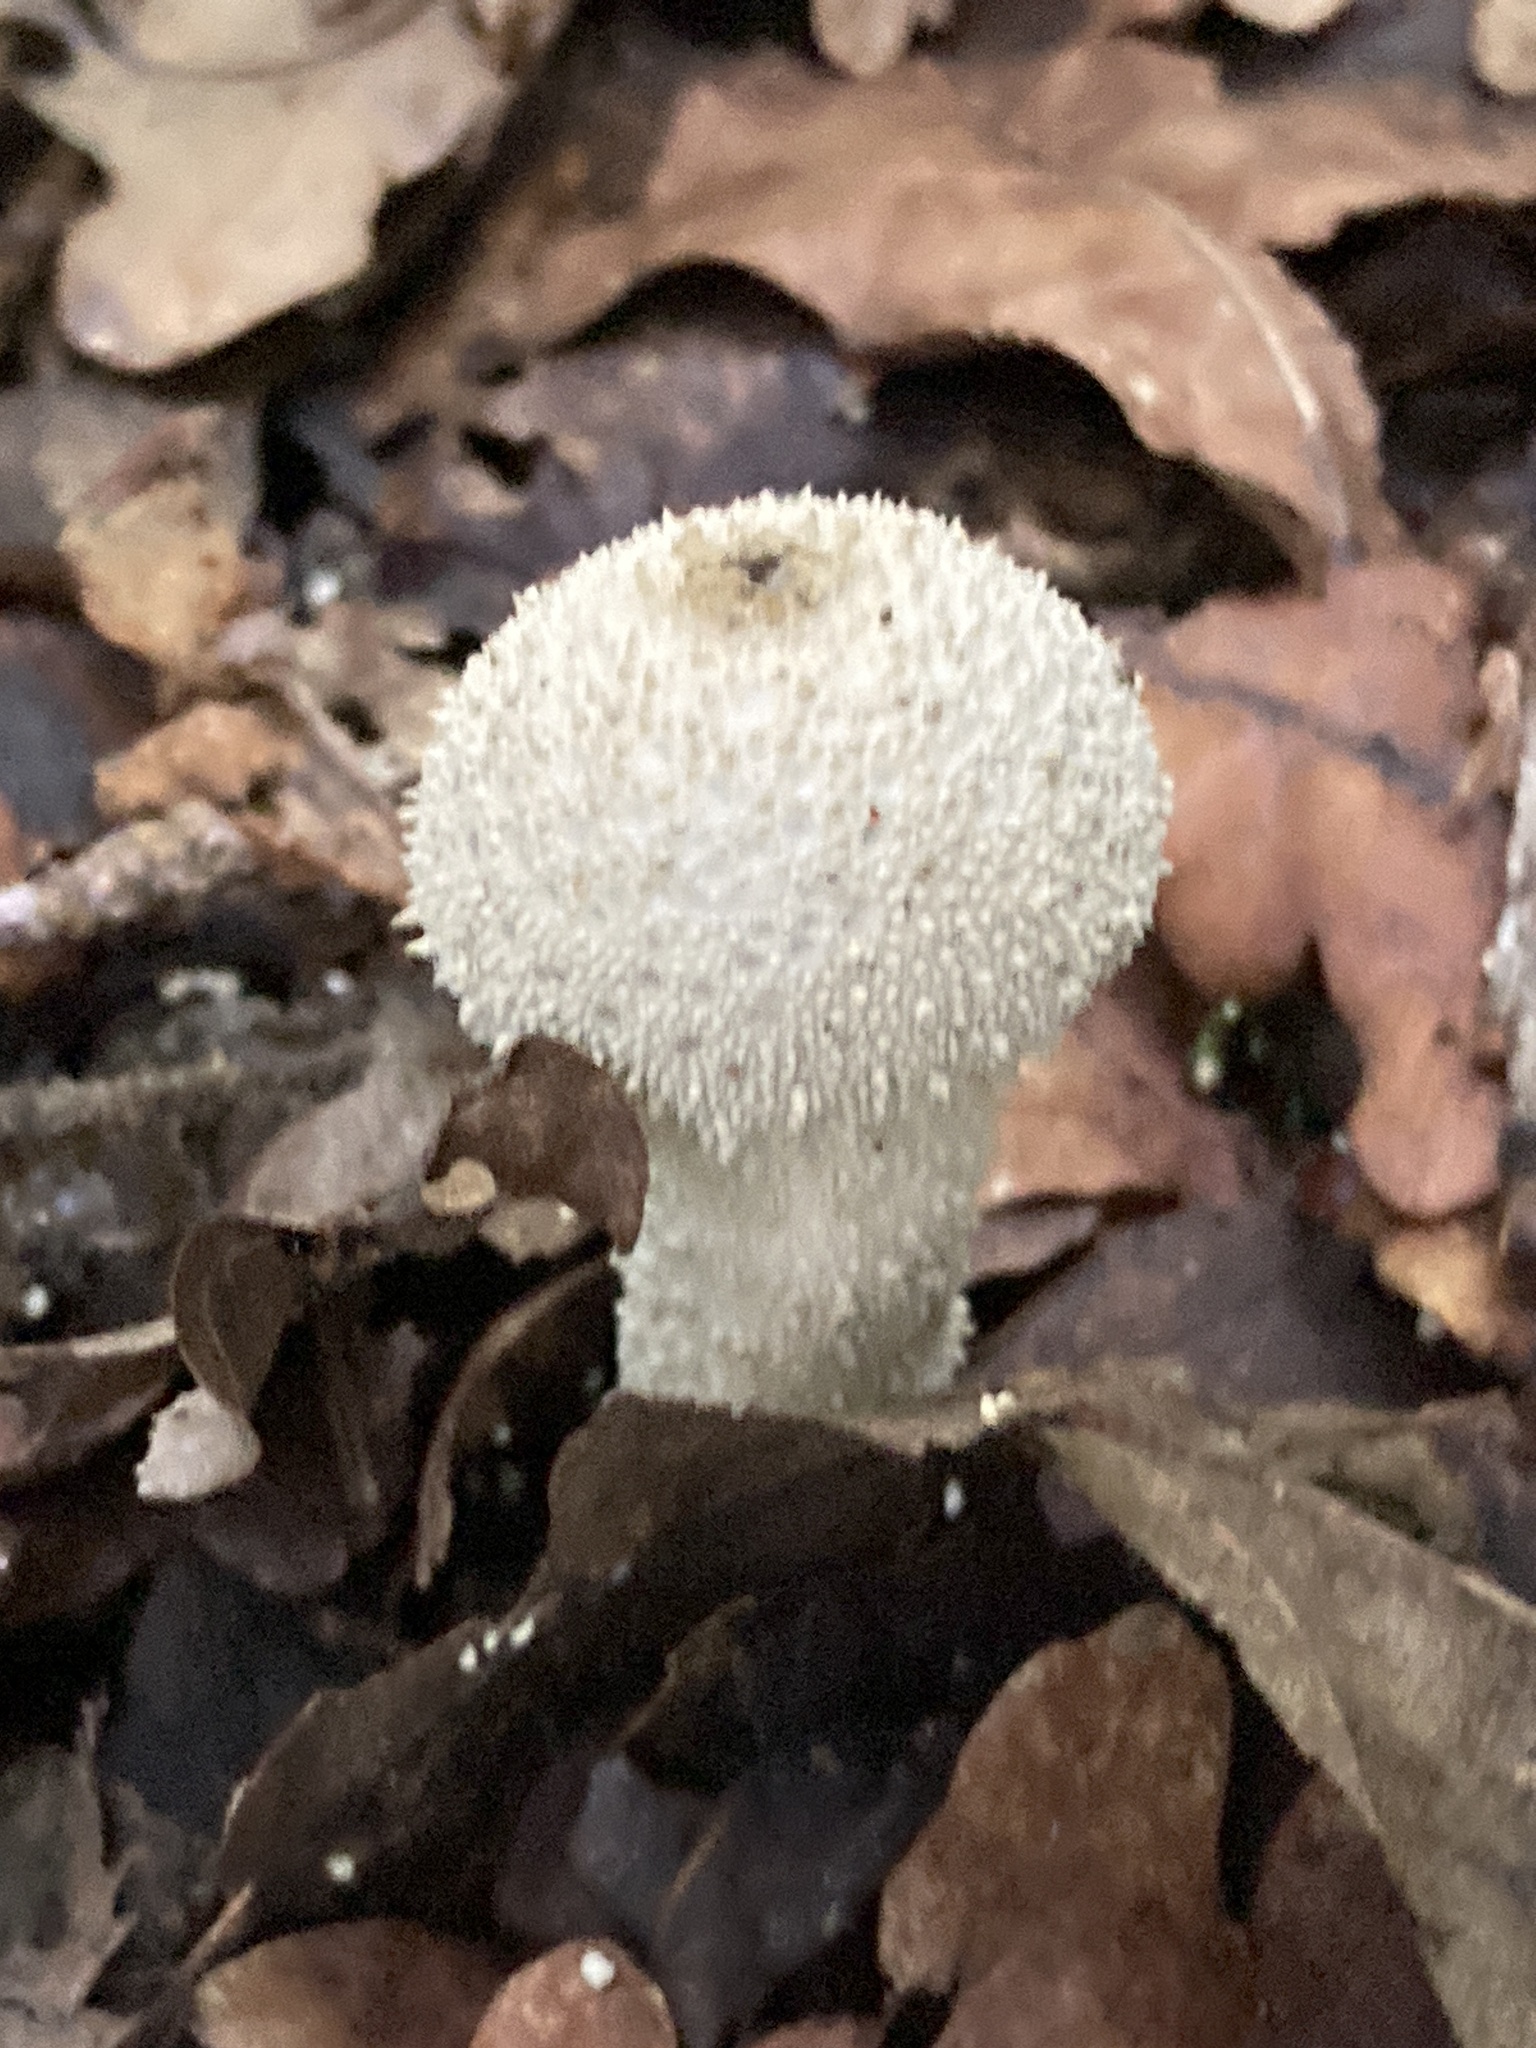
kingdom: Fungi
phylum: Basidiomycota
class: Agaricomycetes
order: Agaricales
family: Lycoperdaceae
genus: Lycoperdon
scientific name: Lycoperdon perlatum
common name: Common puffball
